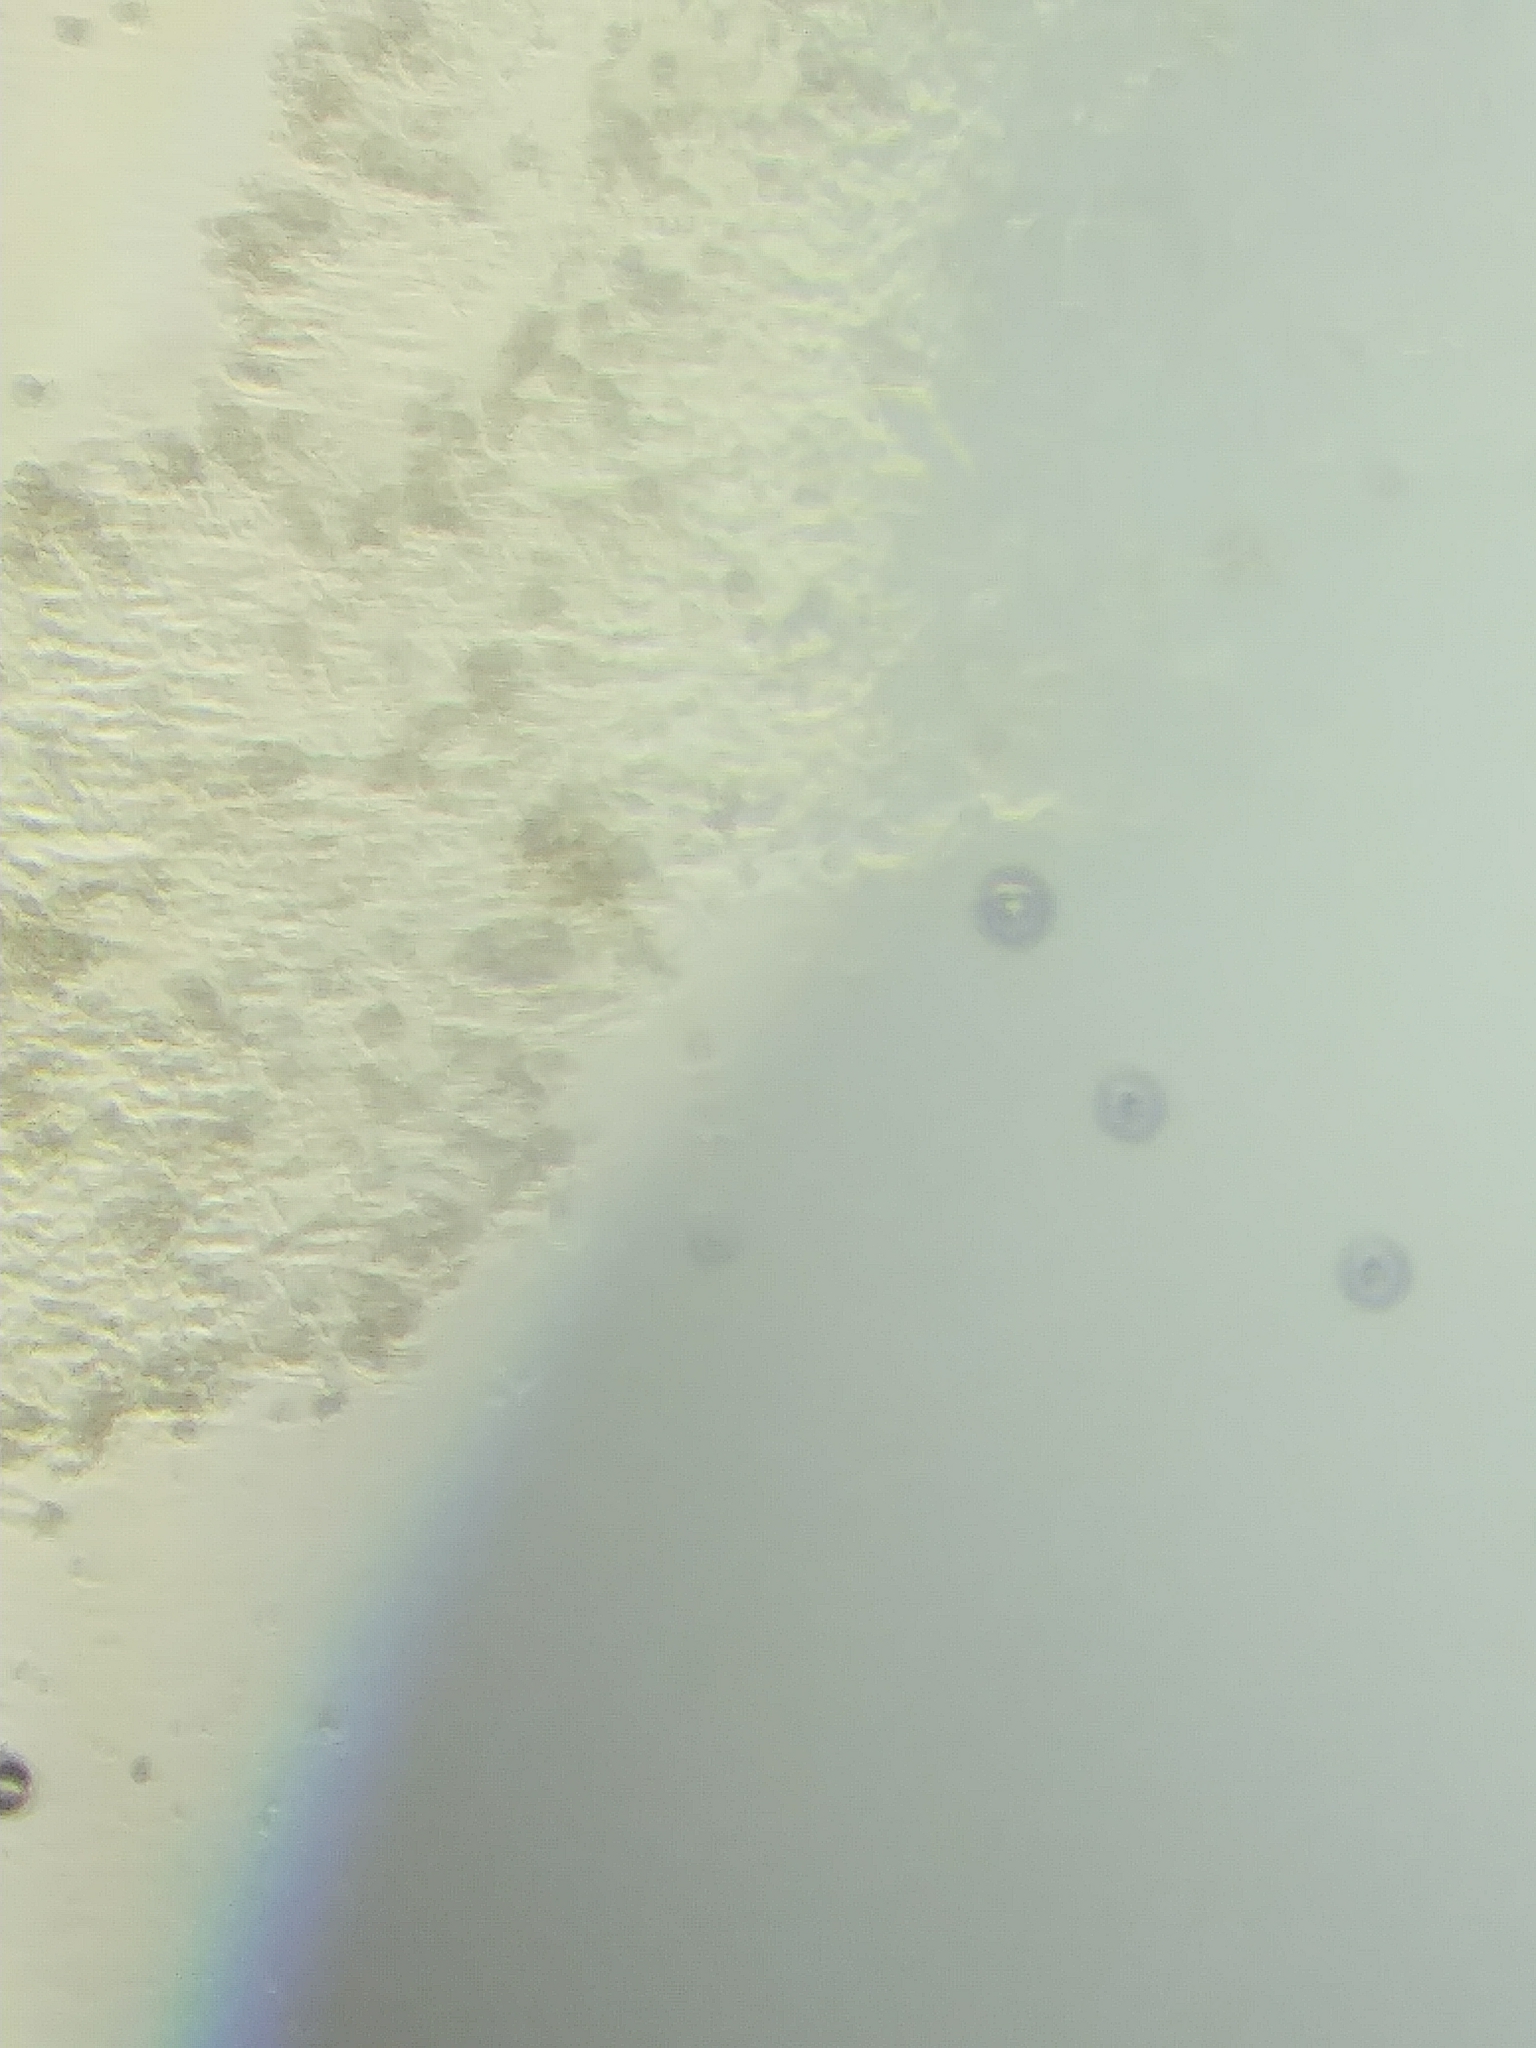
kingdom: Fungi
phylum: Basidiomycota
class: Agaricomycetes
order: Agaricales
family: Psathyrellaceae
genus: Psathyrella
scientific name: Psathyrella saccharinophila
